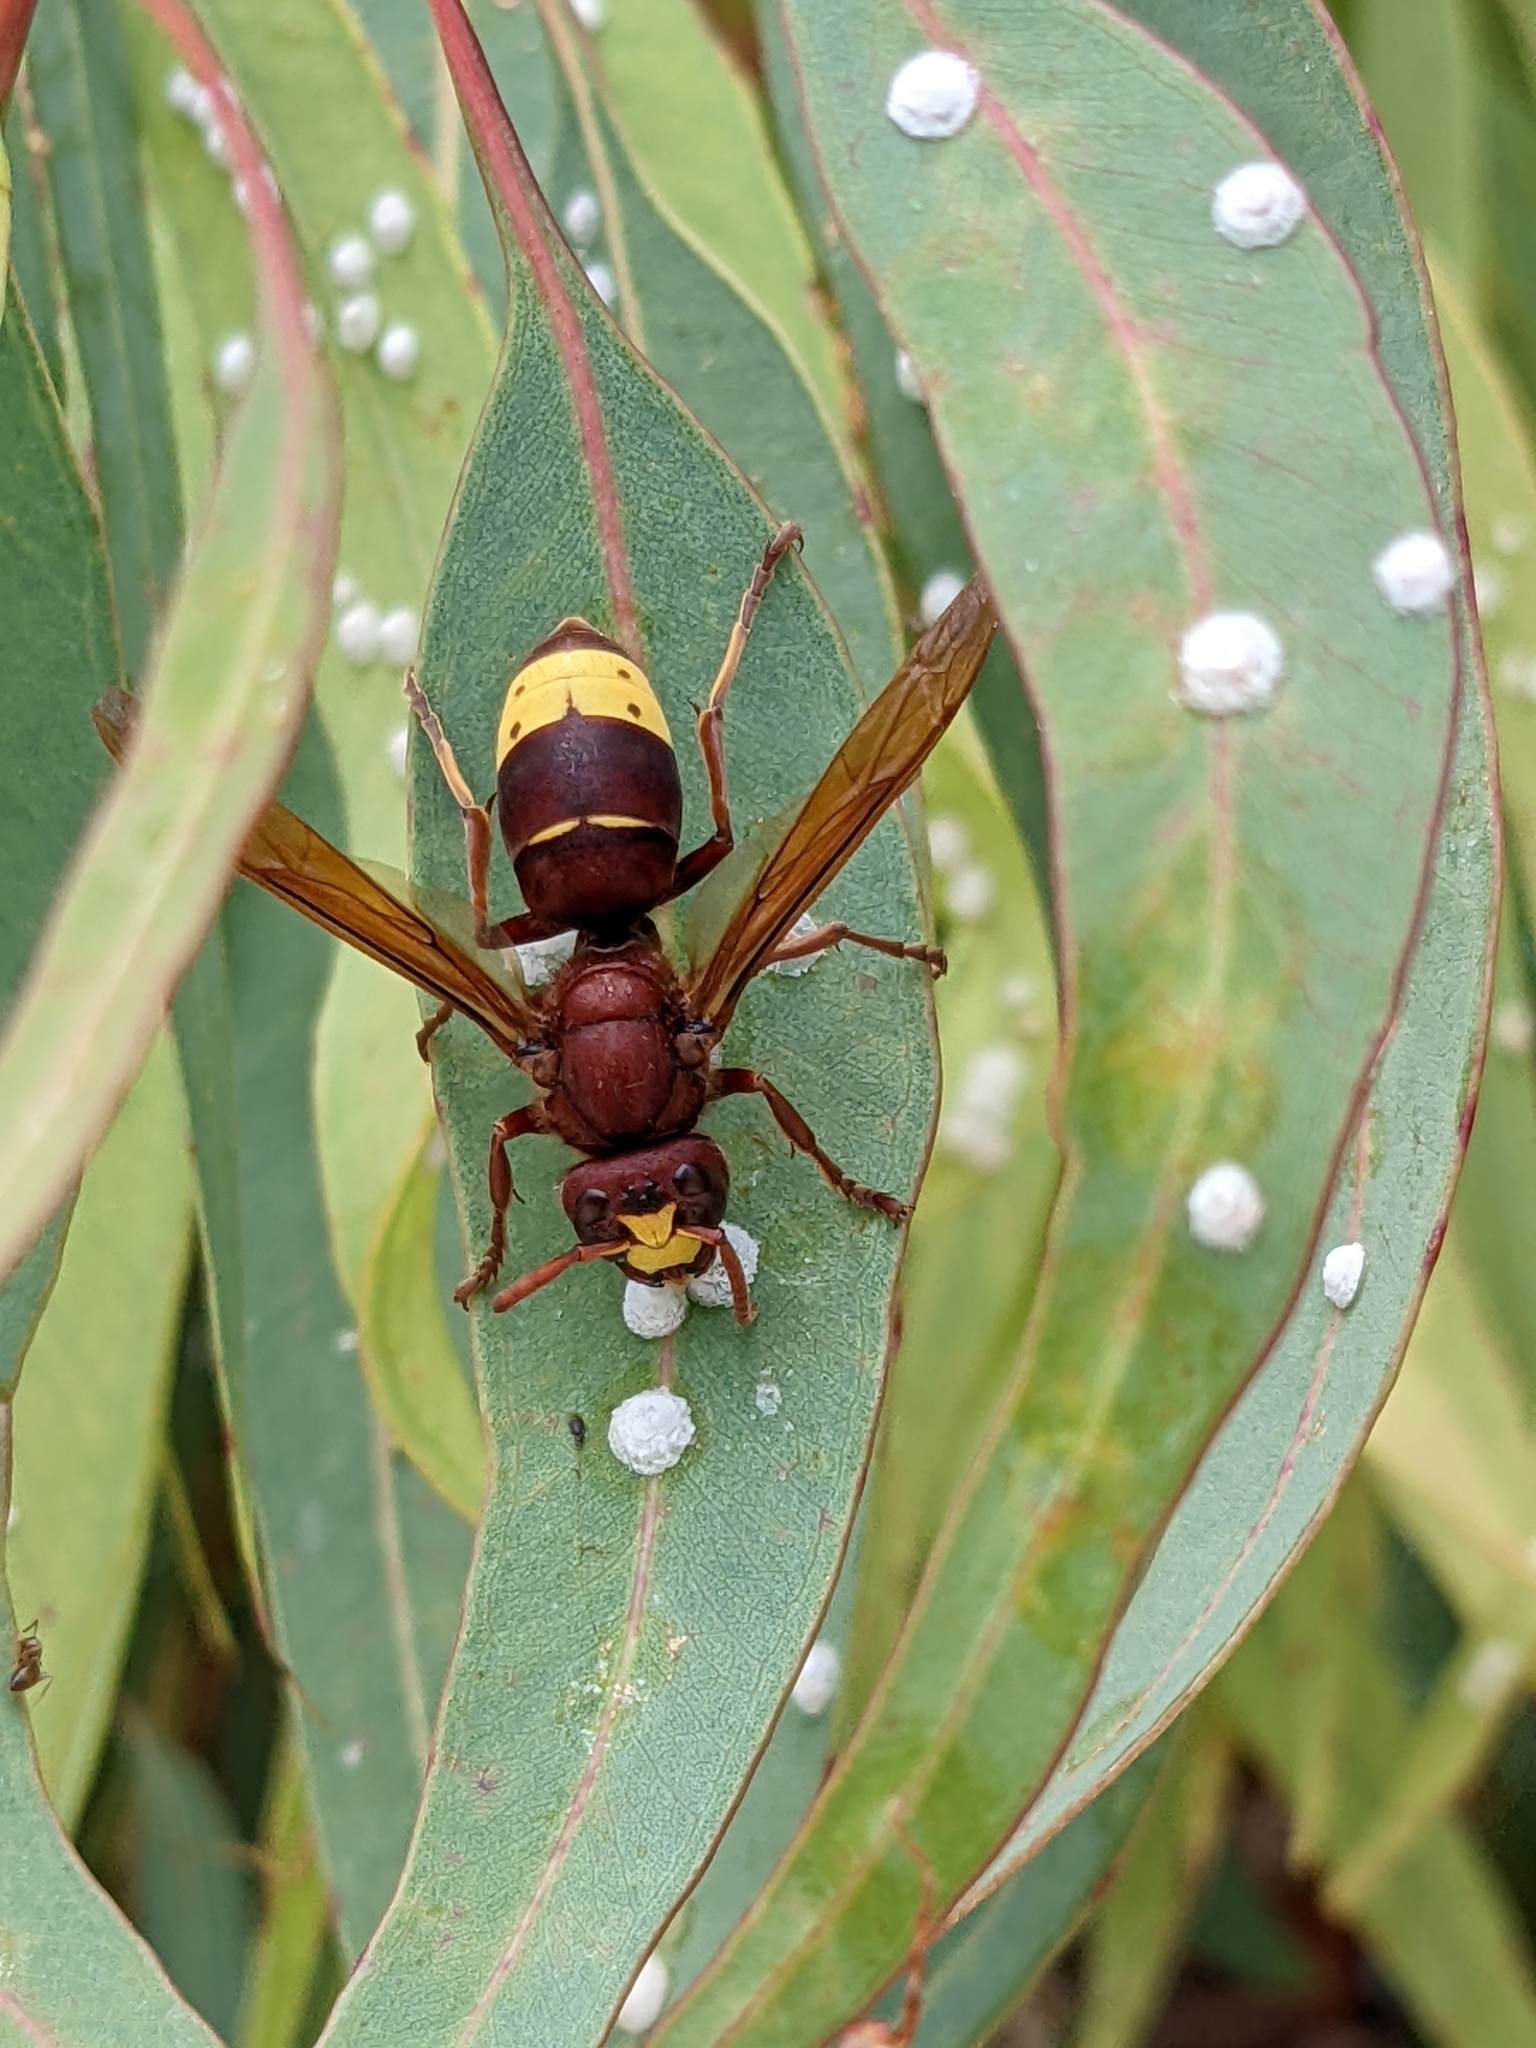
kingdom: Animalia
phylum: Arthropoda
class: Insecta
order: Hymenoptera
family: Vespidae
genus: Vespa
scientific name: Vespa orientalis
